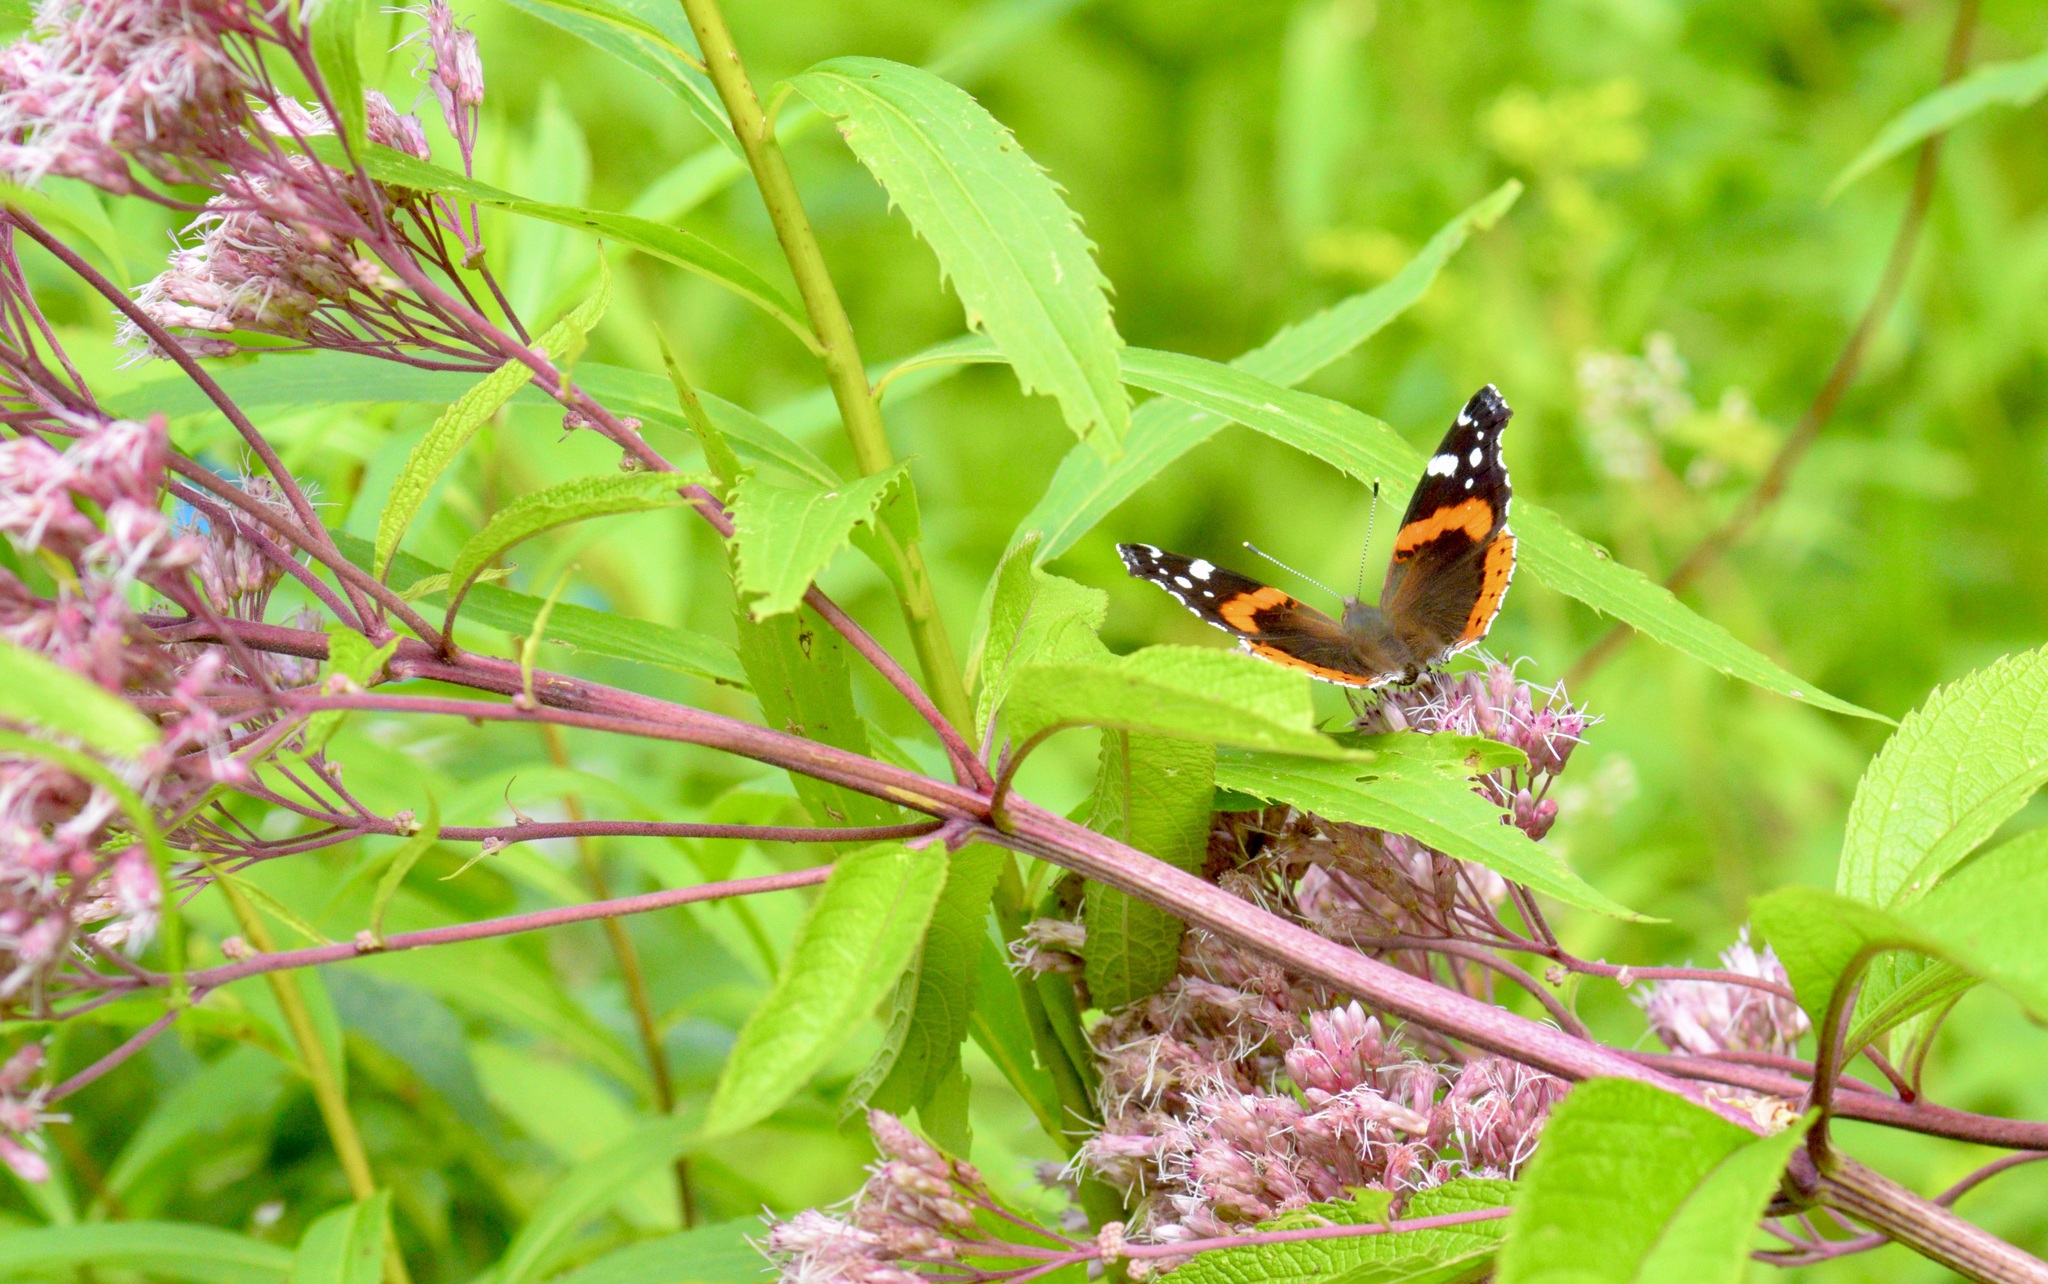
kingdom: Animalia
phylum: Arthropoda
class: Insecta
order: Lepidoptera
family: Nymphalidae
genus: Vanessa
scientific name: Vanessa atalanta
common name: Red admiral
